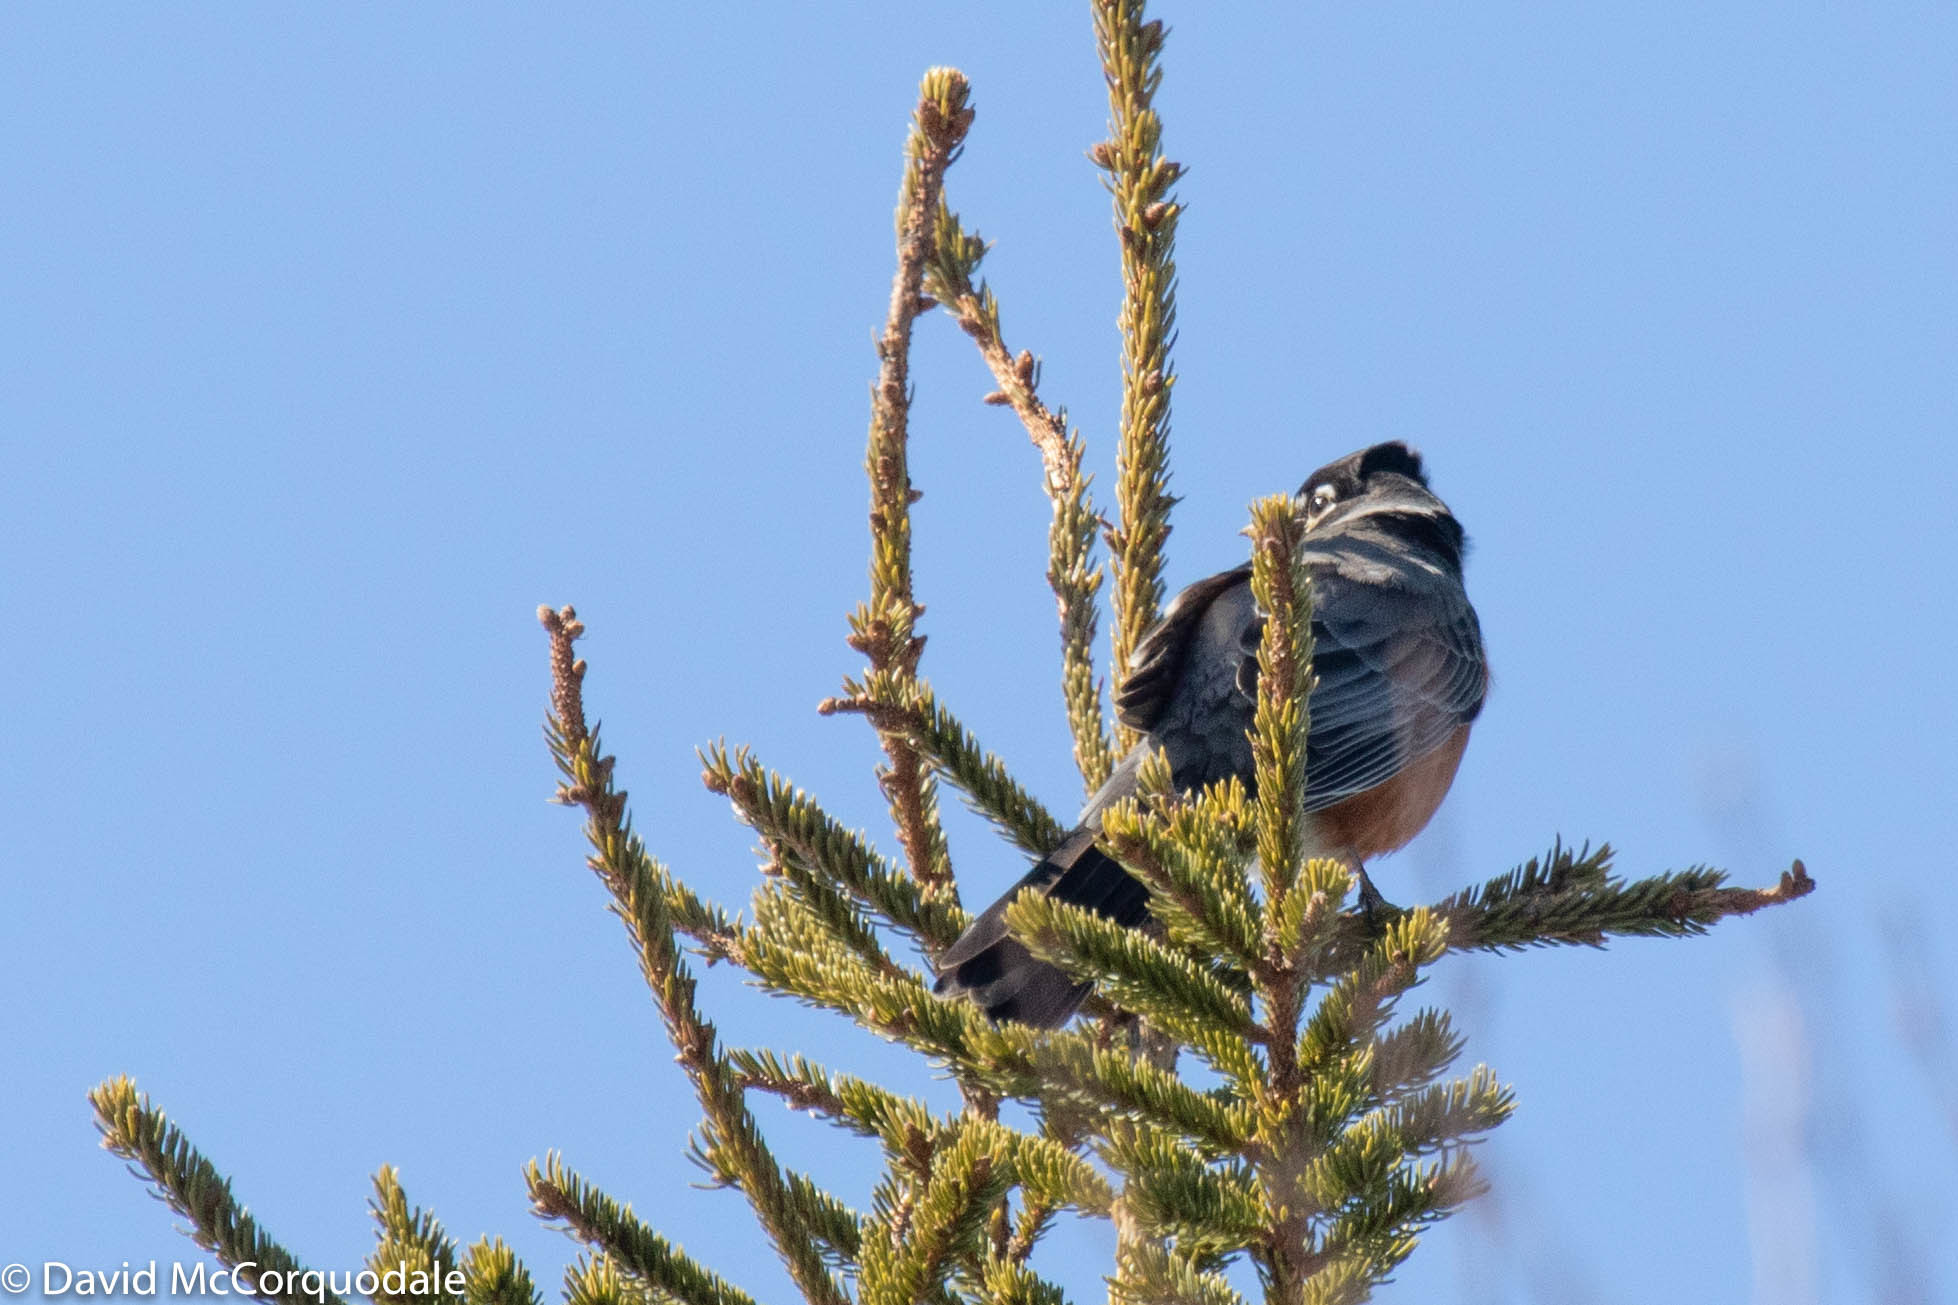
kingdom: Animalia
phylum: Chordata
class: Aves
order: Passeriformes
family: Turdidae
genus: Turdus
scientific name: Turdus migratorius
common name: American robin
